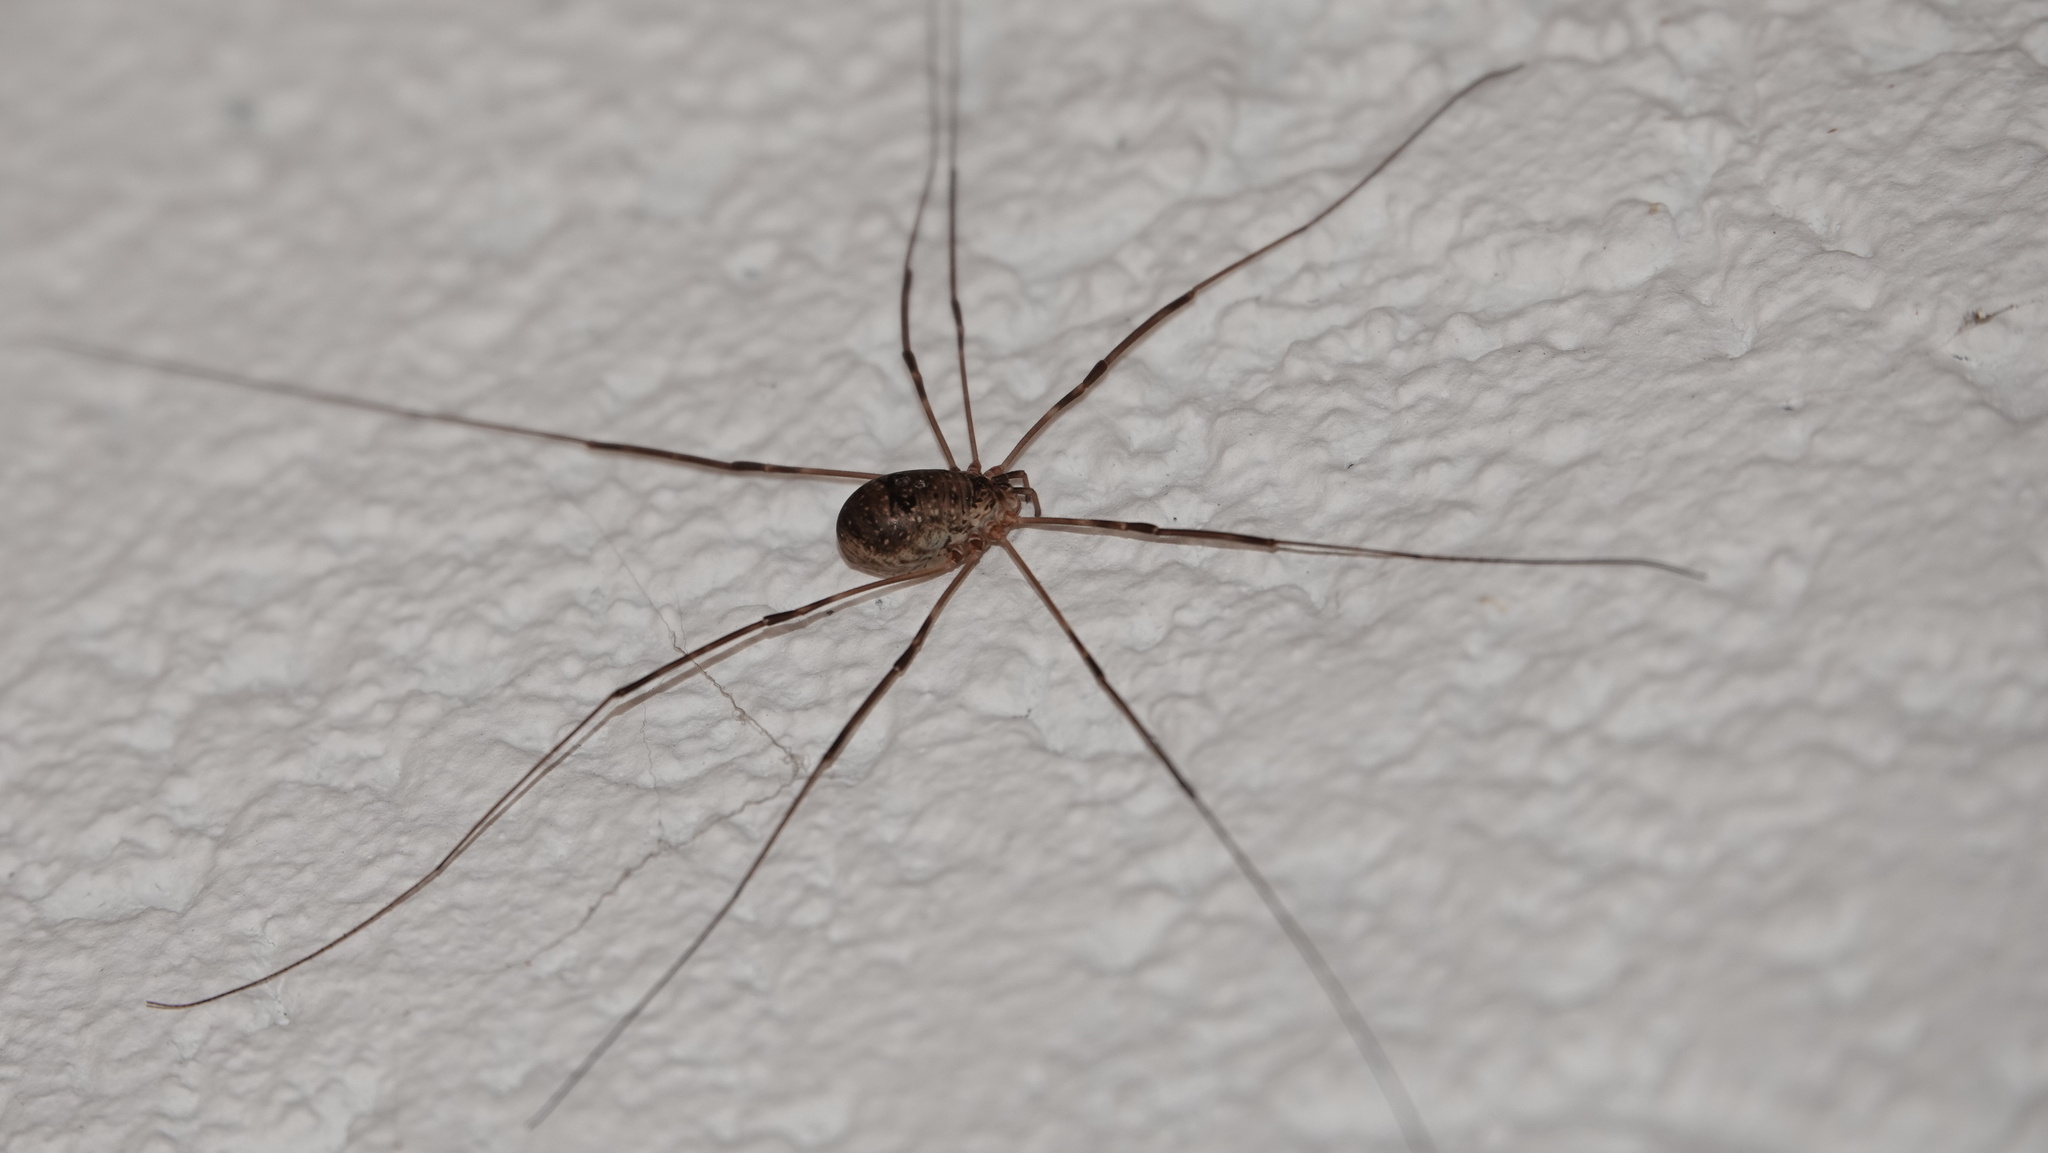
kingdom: Animalia
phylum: Arthropoda
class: Arachnida
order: Opiliones
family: Phalangiidae
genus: Amilenus
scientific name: Amilenus aurantiacus
